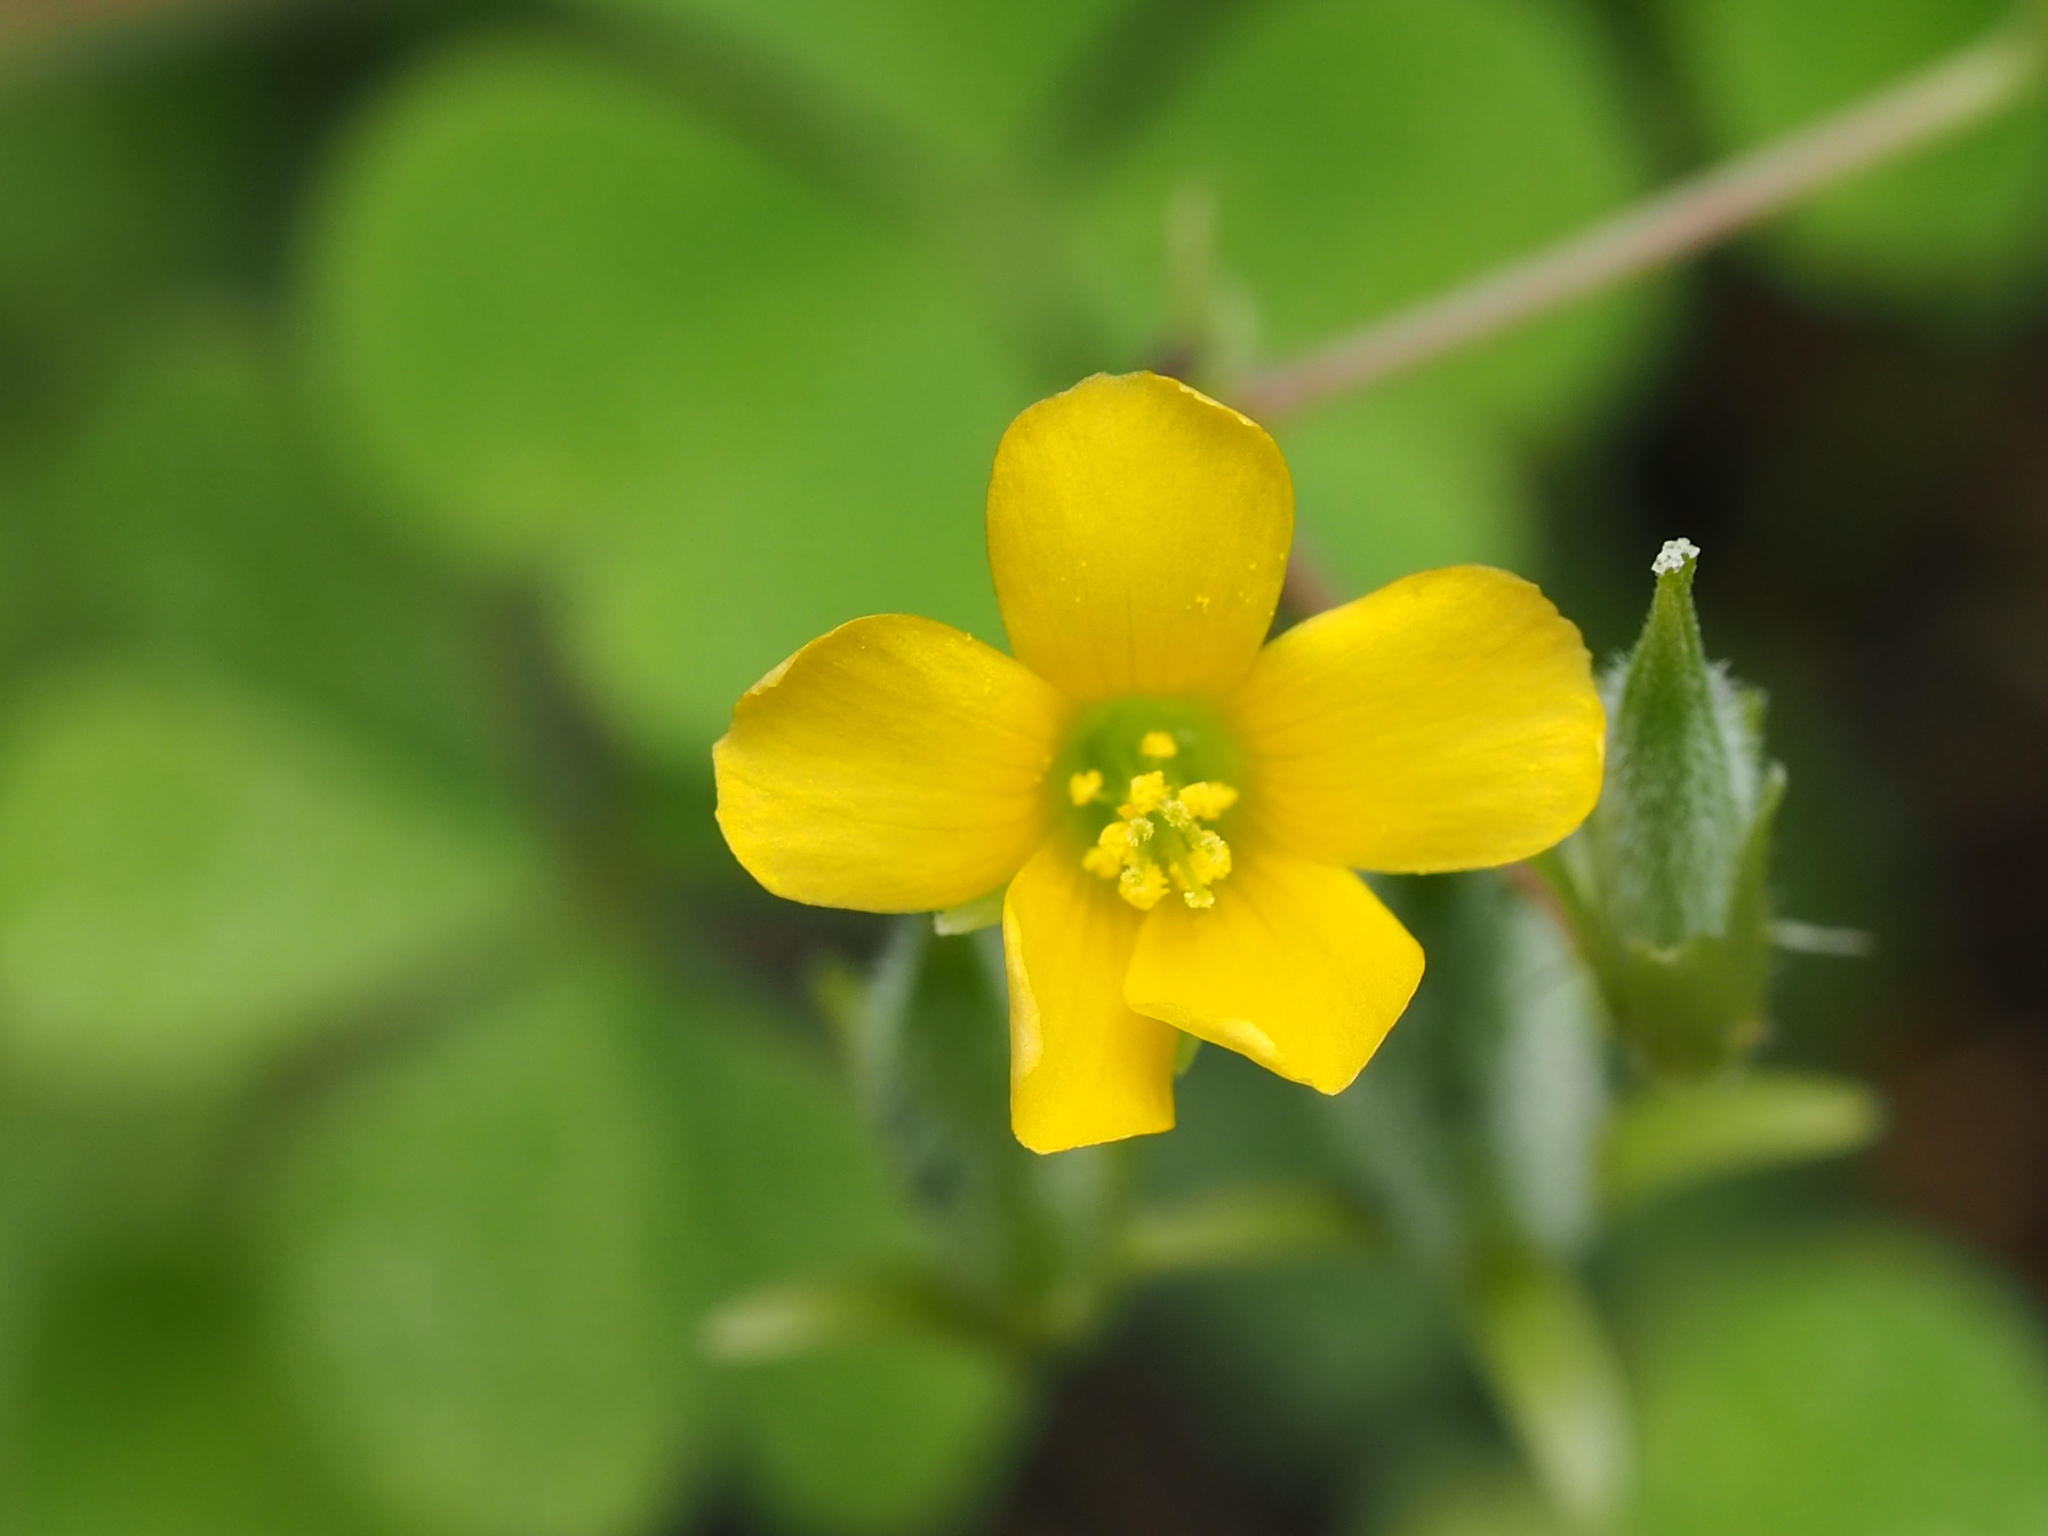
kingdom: Plantae
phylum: Tracheophyta
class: Magnoliopsida
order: Oxalidales
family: Oxalidaceae
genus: Oxalis
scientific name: Oxalis corniculata
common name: Procumbent yellow-sorrel
